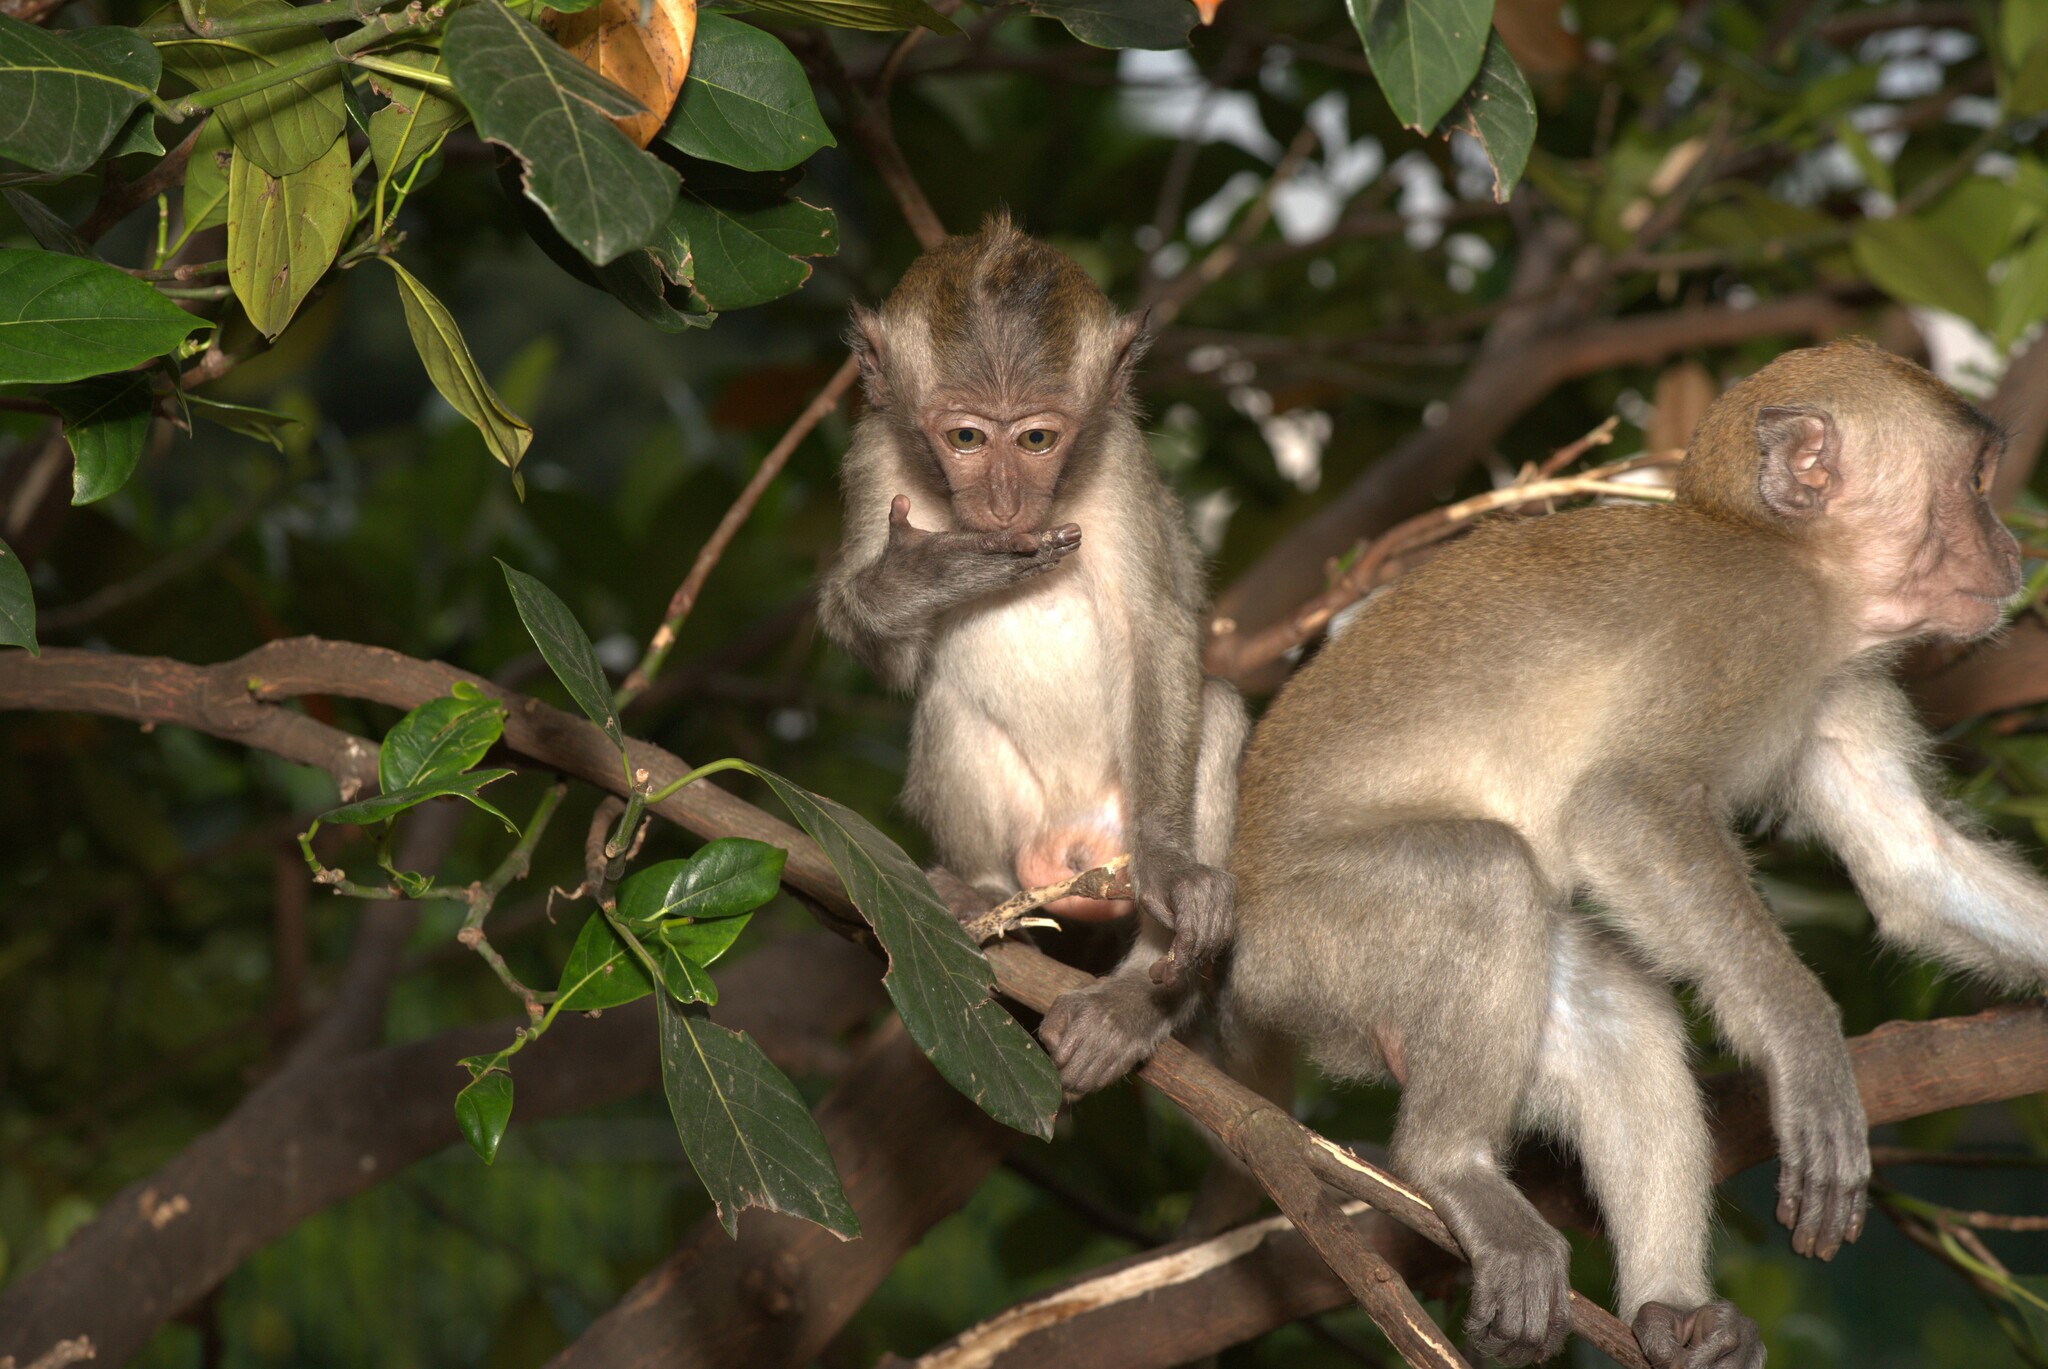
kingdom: Animalia
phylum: Chordata
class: Mammalia
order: Primates
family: Cercopithecidae
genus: Macaca
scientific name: Macaca fascicularis
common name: Crab-eating macaque
